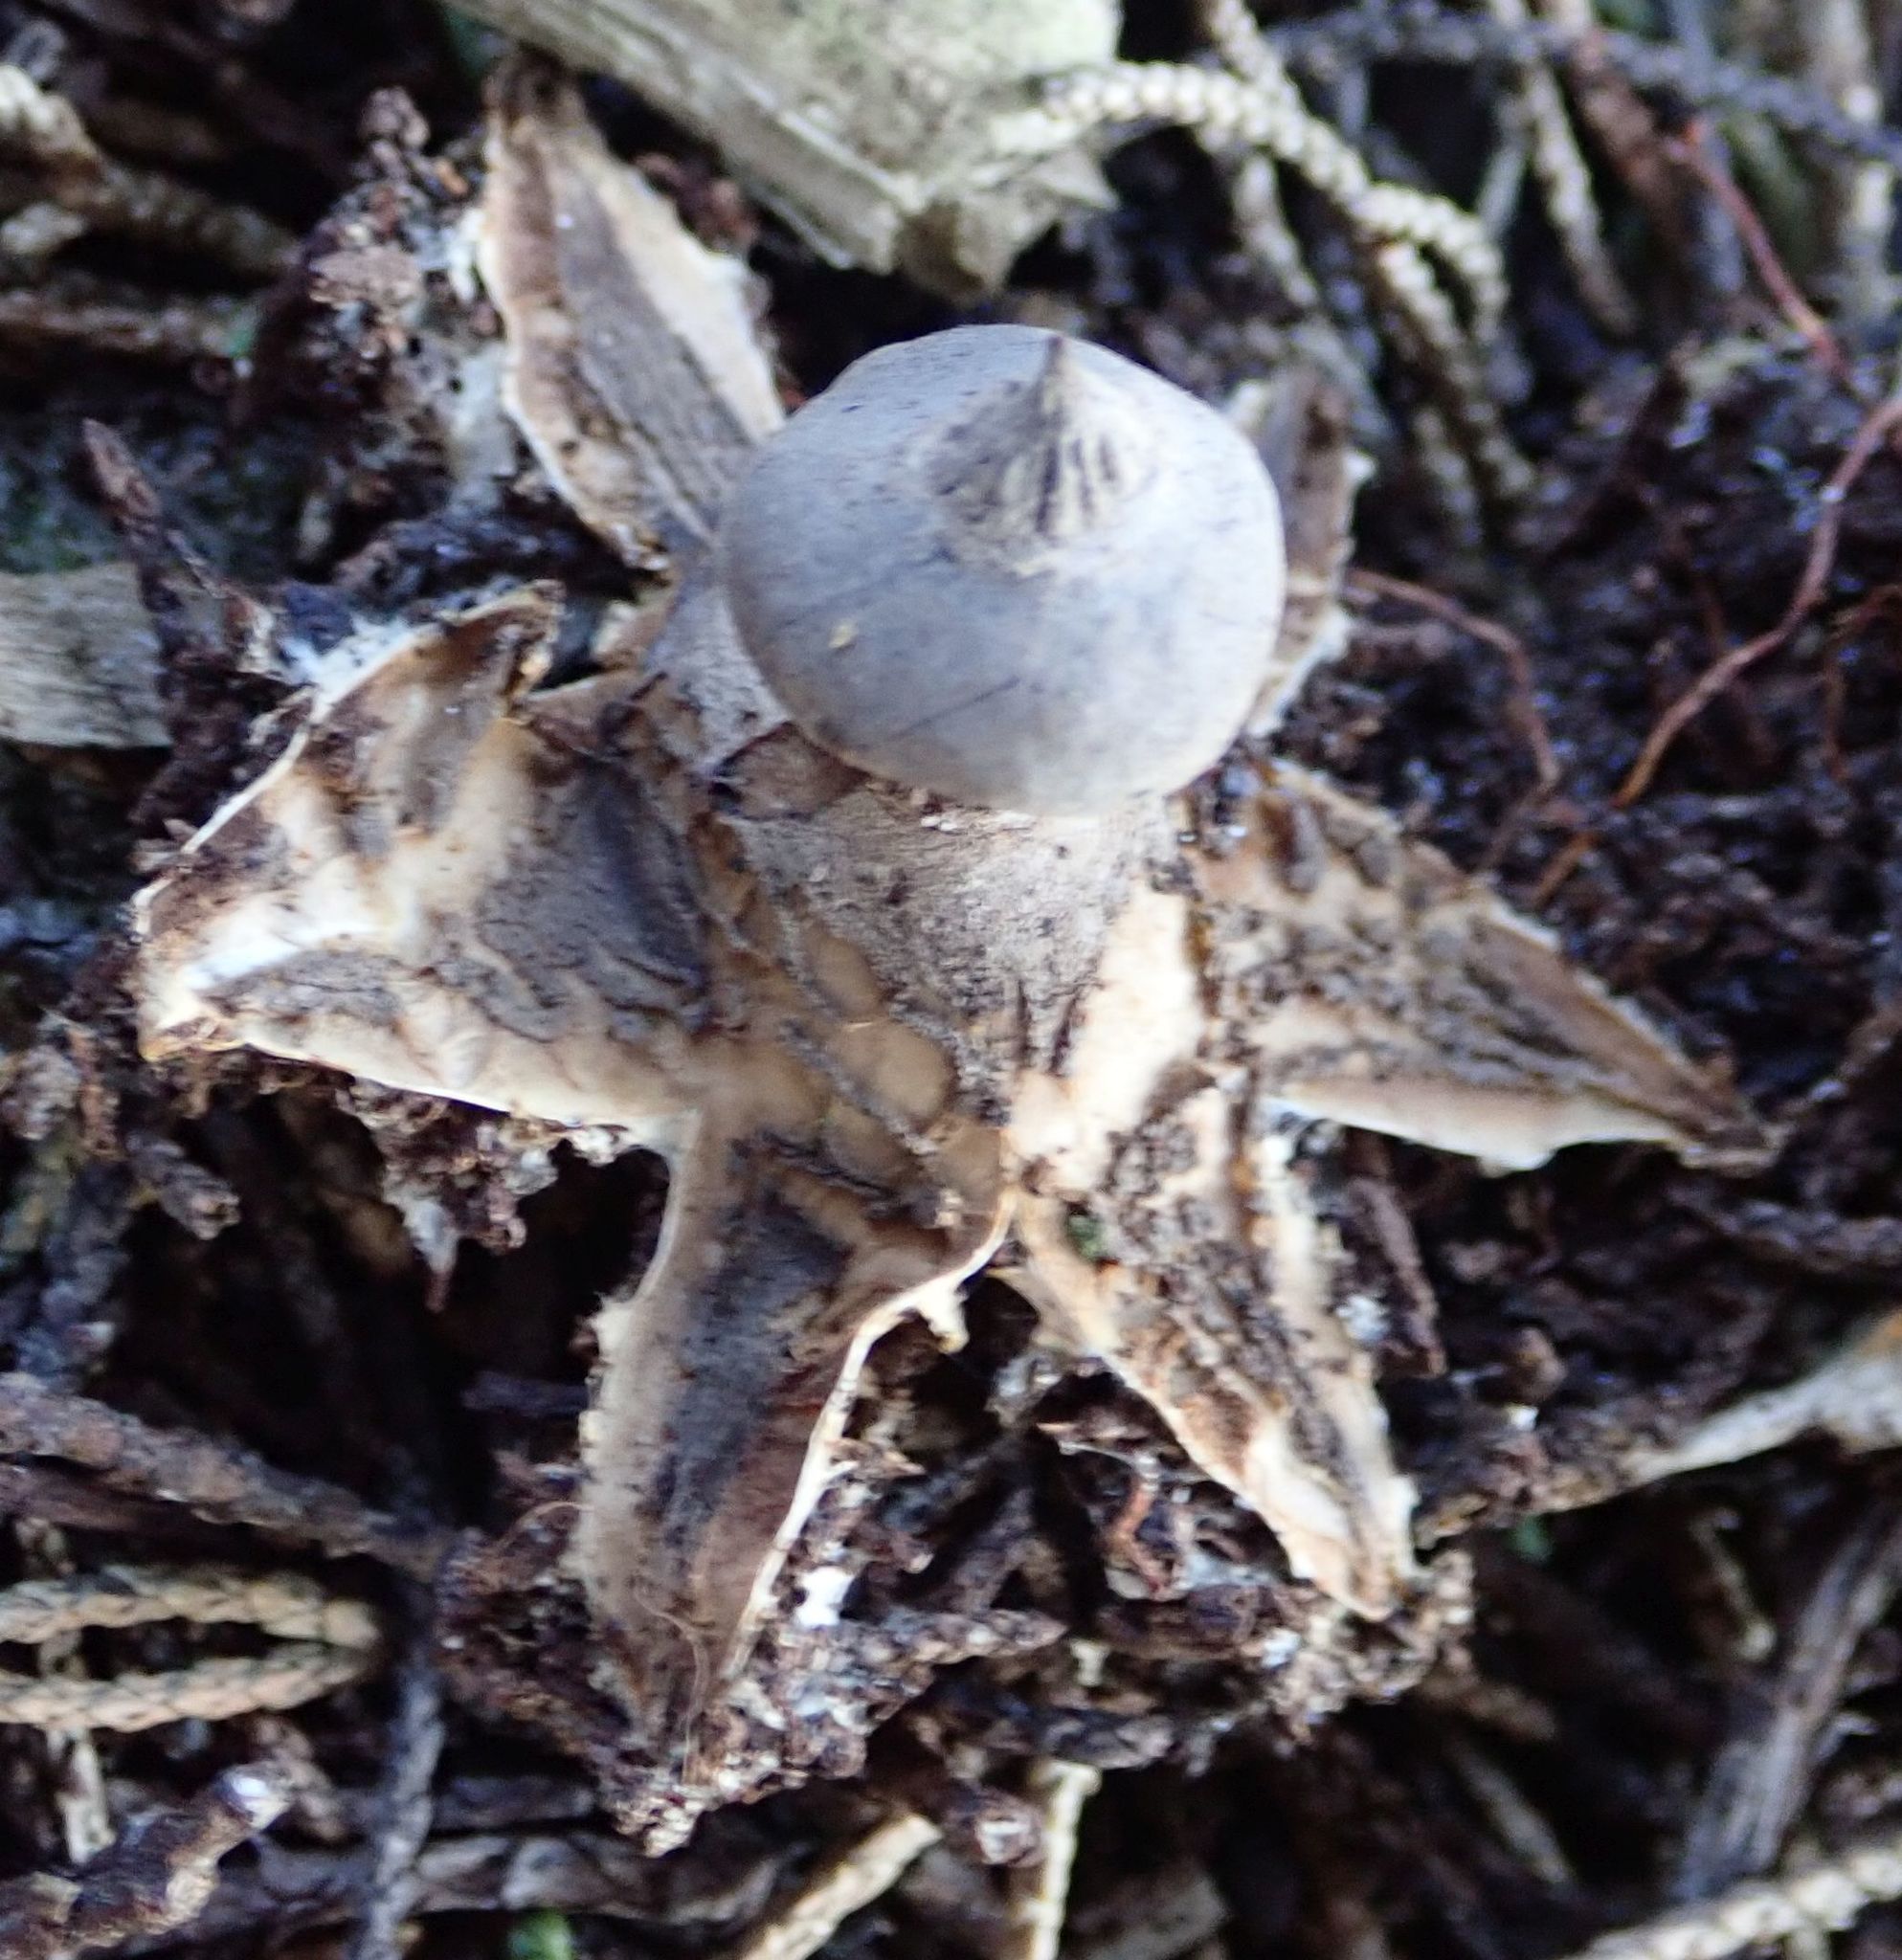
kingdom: Fungi
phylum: Basidiomycota
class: Agaricomycetes
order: Geastrales
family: Geastraceae
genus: Geastrum
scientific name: Geastrum pectinatum
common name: Beaked earthstar
